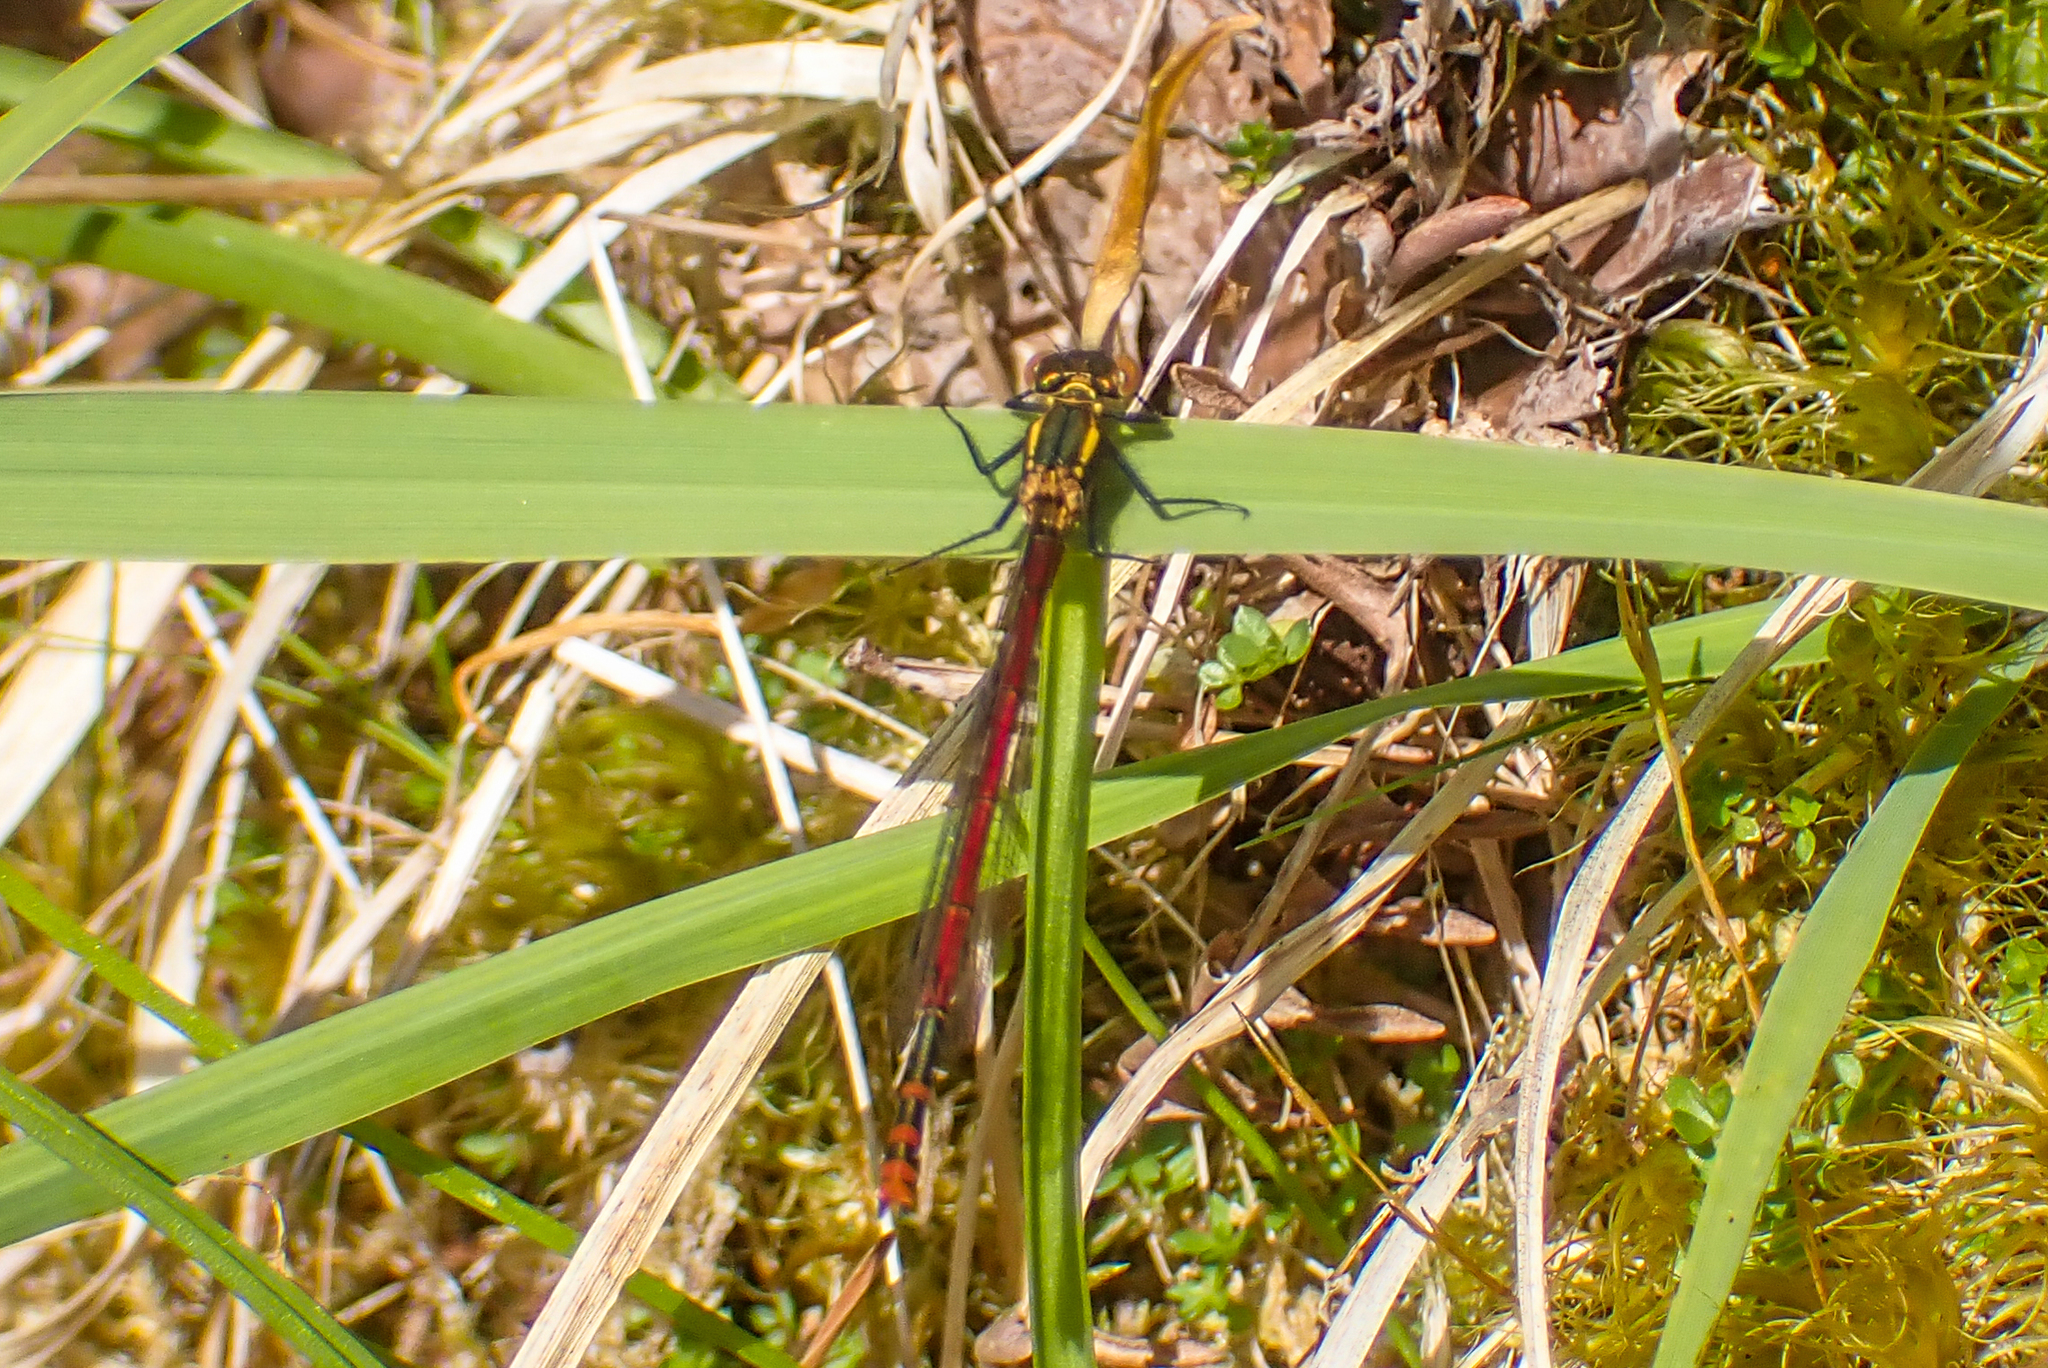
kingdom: Animalia
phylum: Arthropoda
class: Insecta
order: Odonata
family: Coenagrionidae
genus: Pyrrhosoma
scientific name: Pyrrhosoma nymphula
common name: Large red damsel
